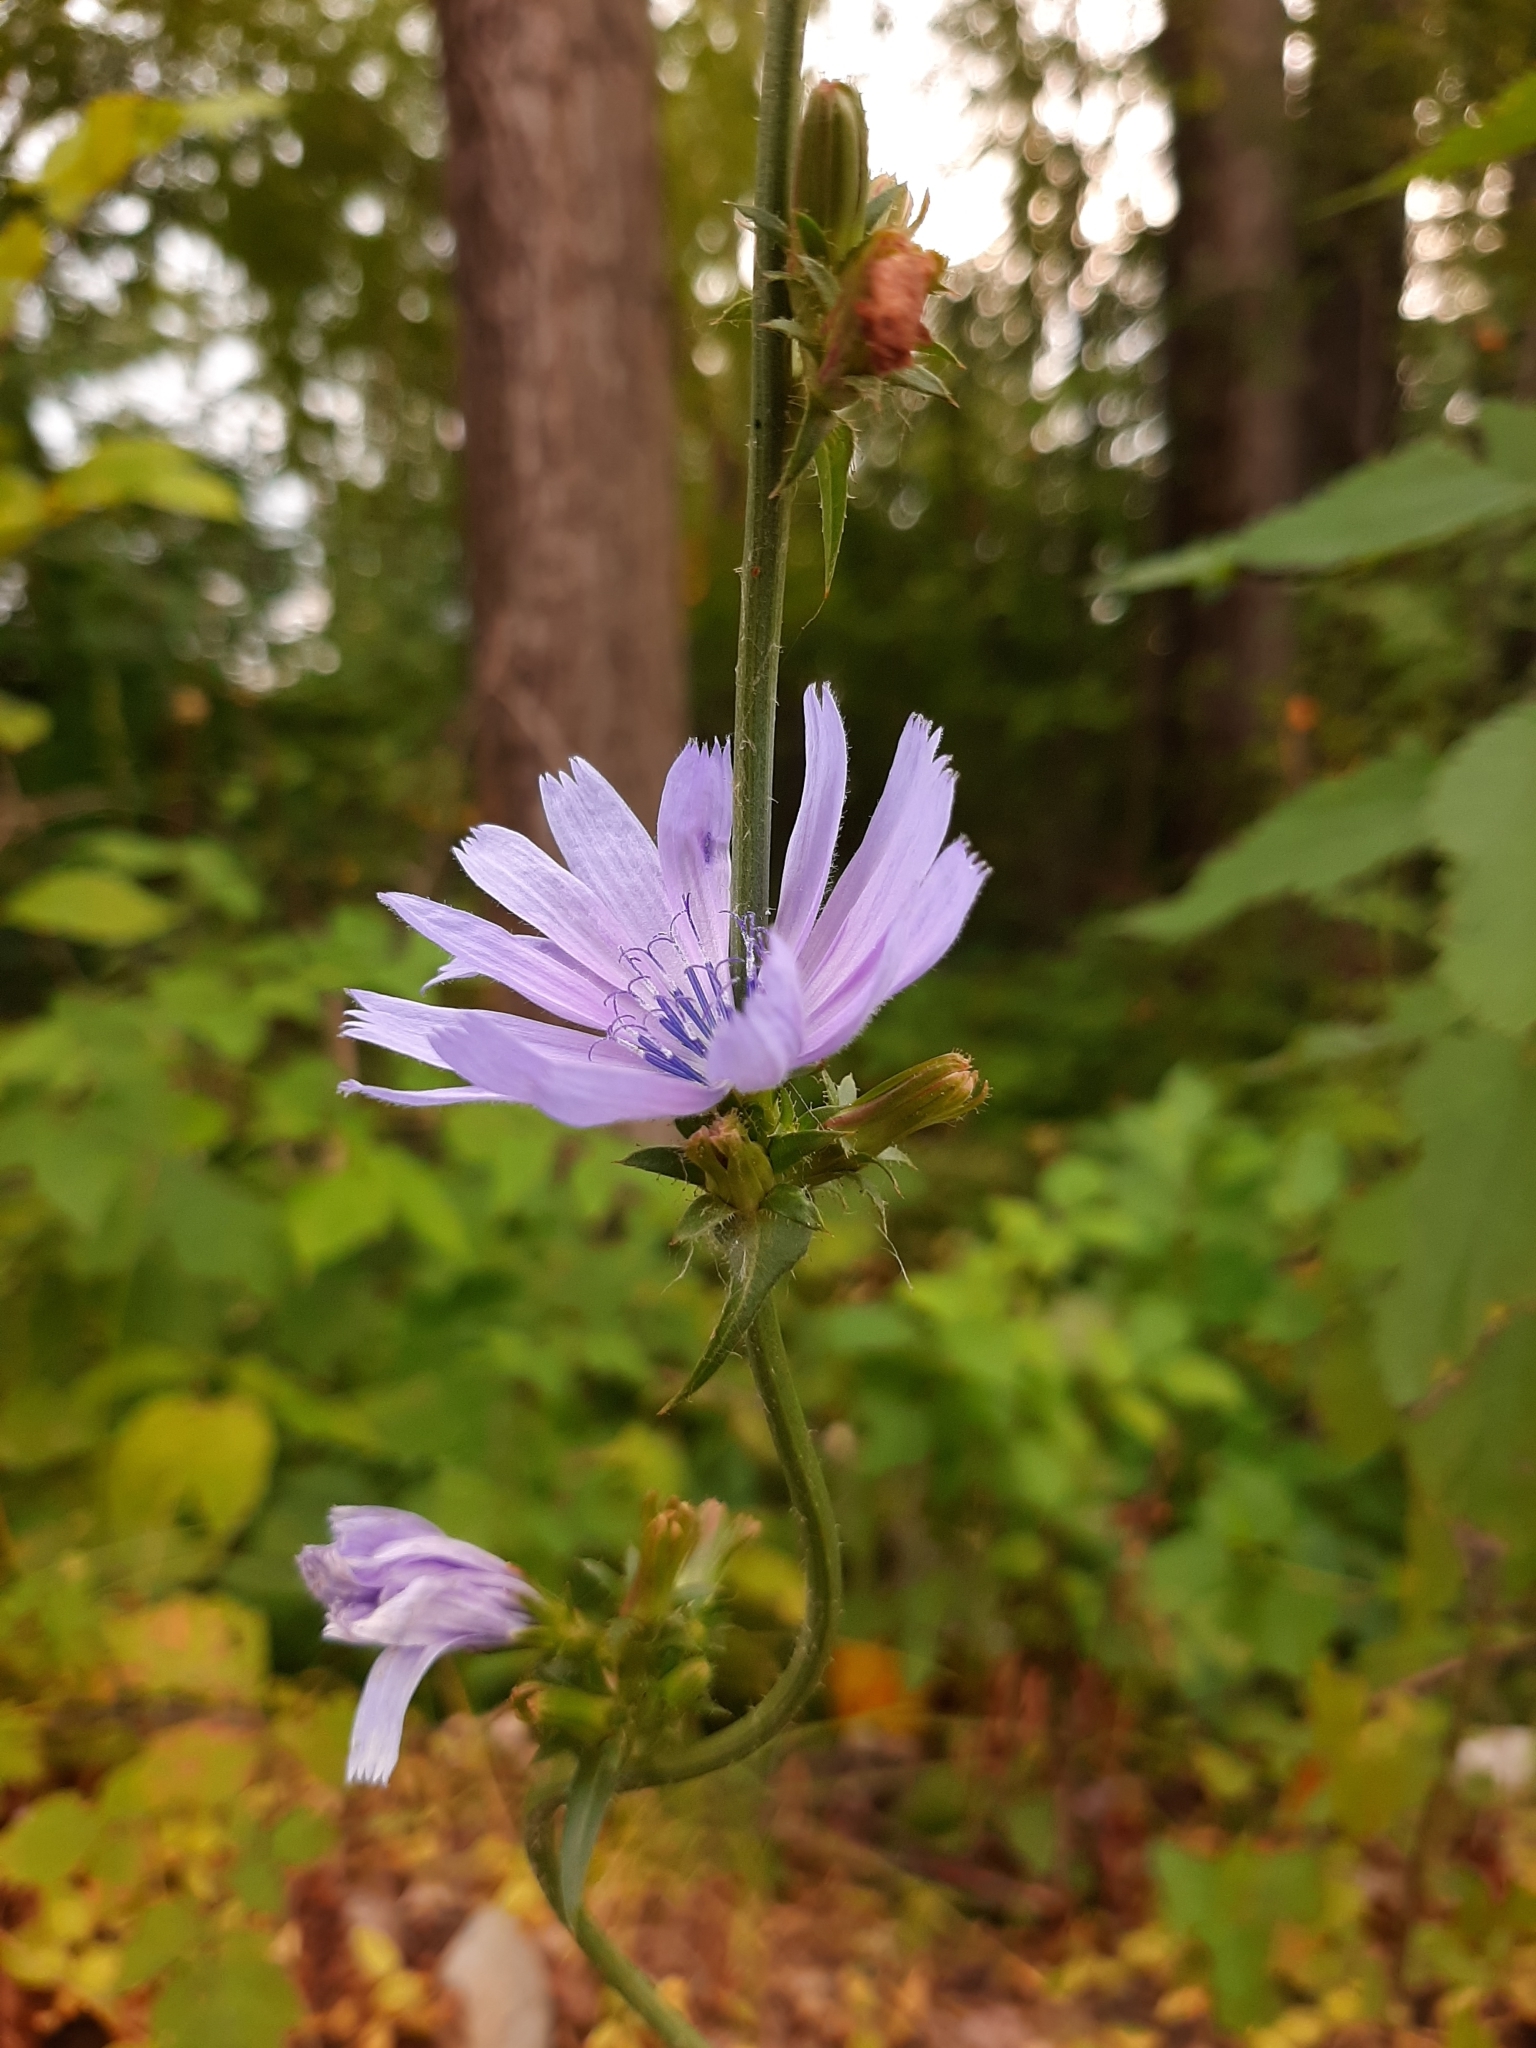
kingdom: Plantae
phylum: Tracheophyta
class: Magnoliopsida
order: Asterales
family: Asteraceae
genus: Cichorium
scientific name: Cichorium intybus
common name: Chicory
